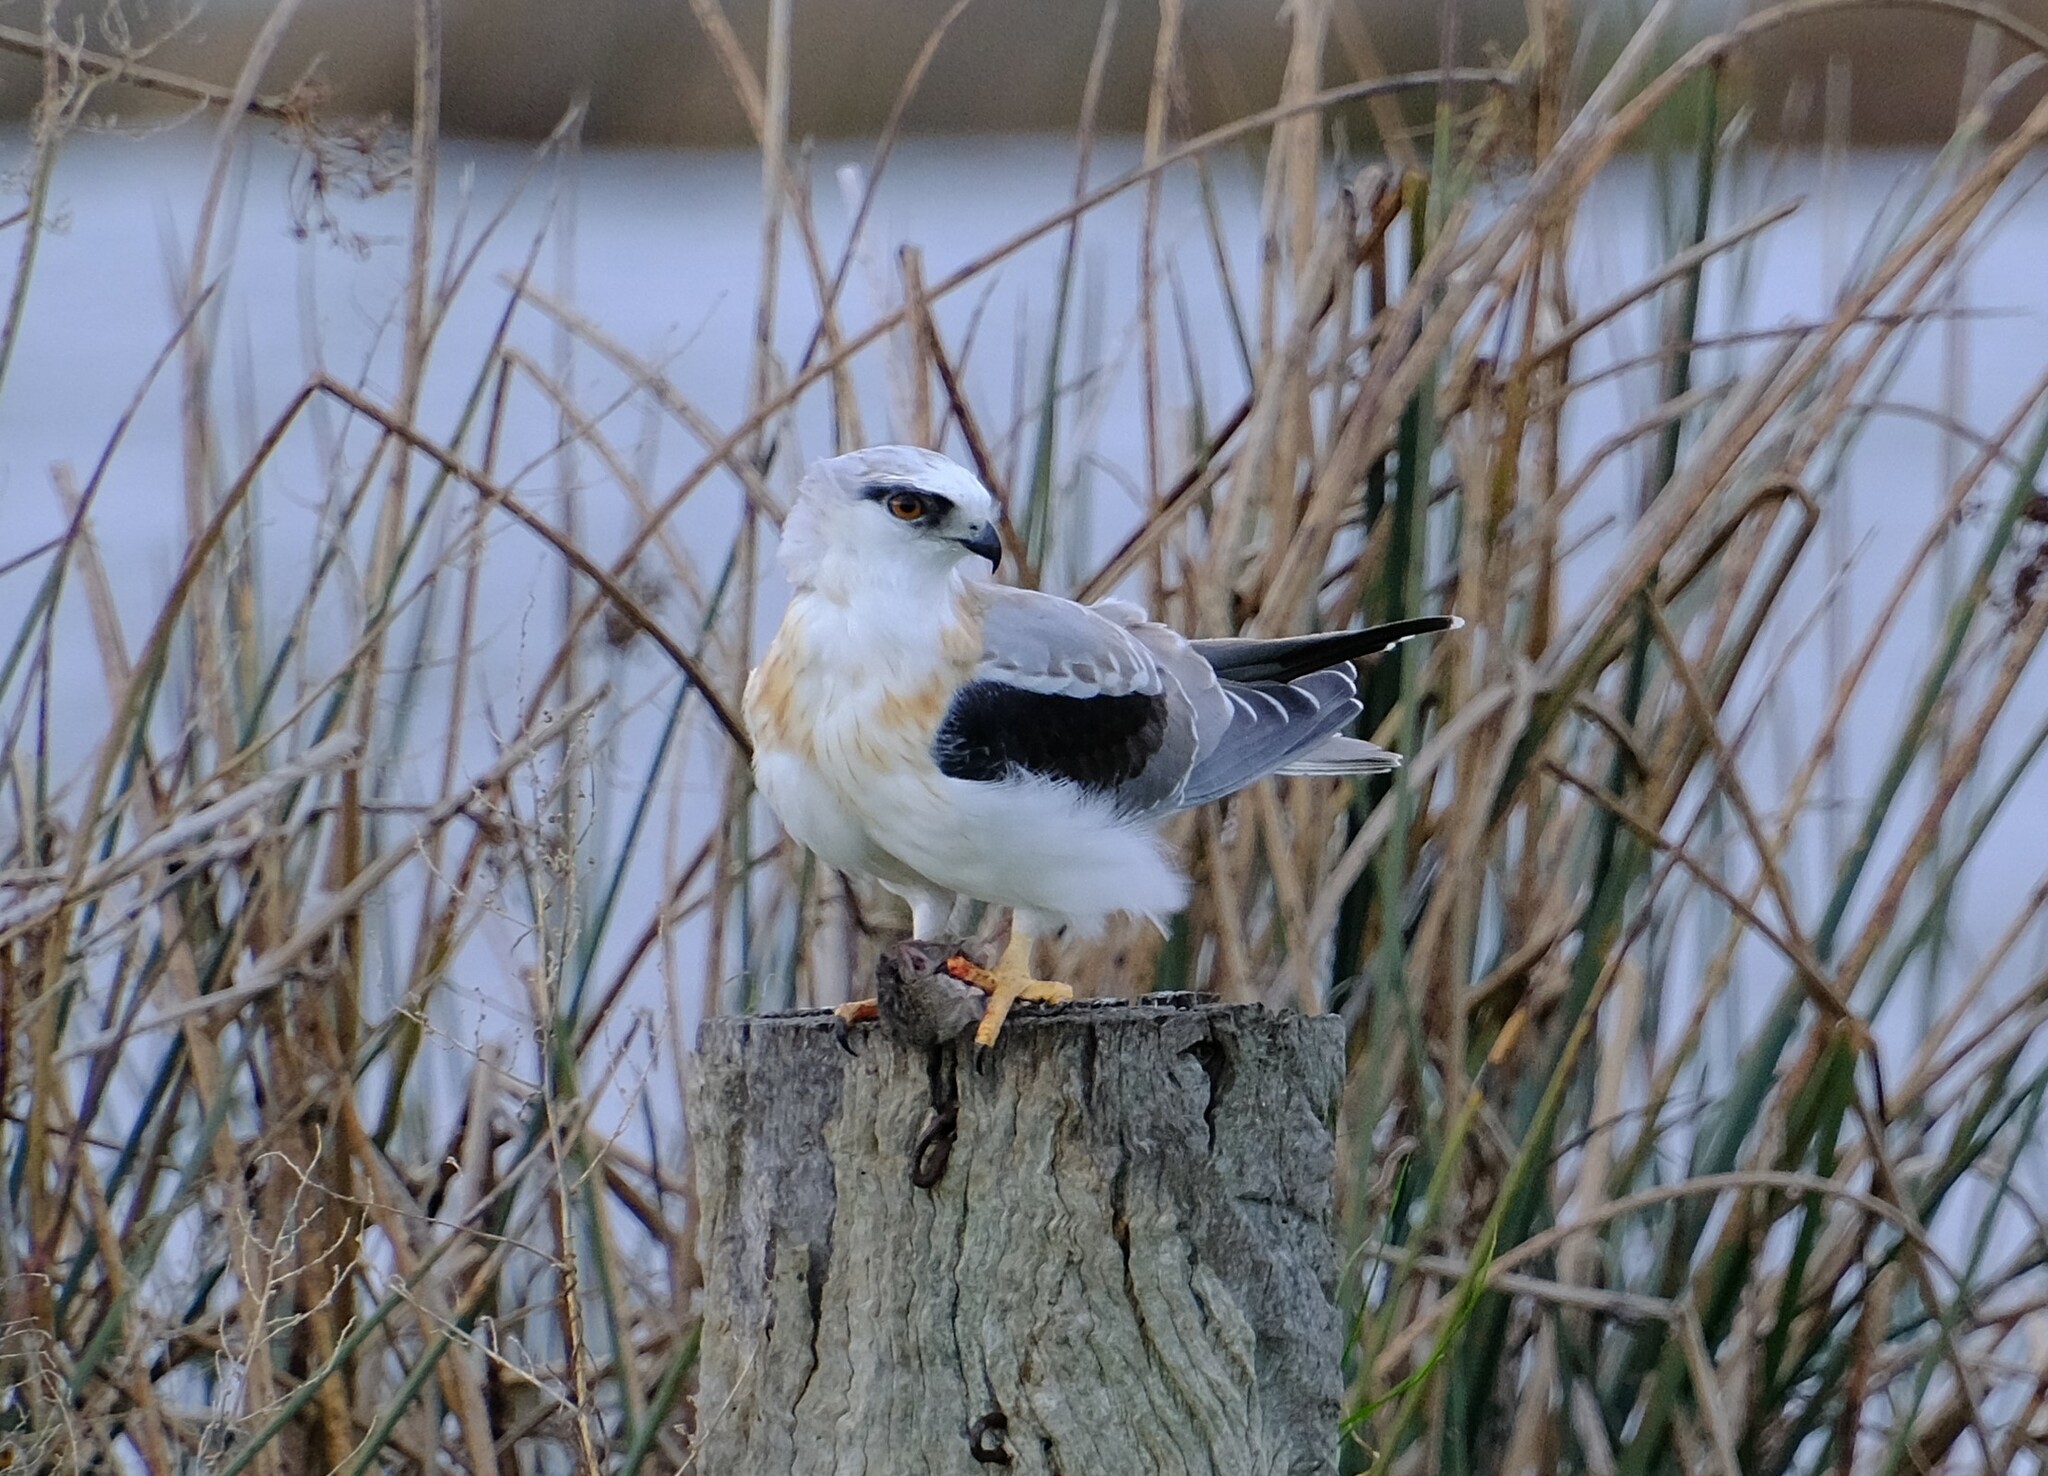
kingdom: Animalia
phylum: Chordata
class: Aves
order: Accipitriformes
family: Accipitridae
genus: Elanus
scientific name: Elanus axillaris
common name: Black-shouldered kite
